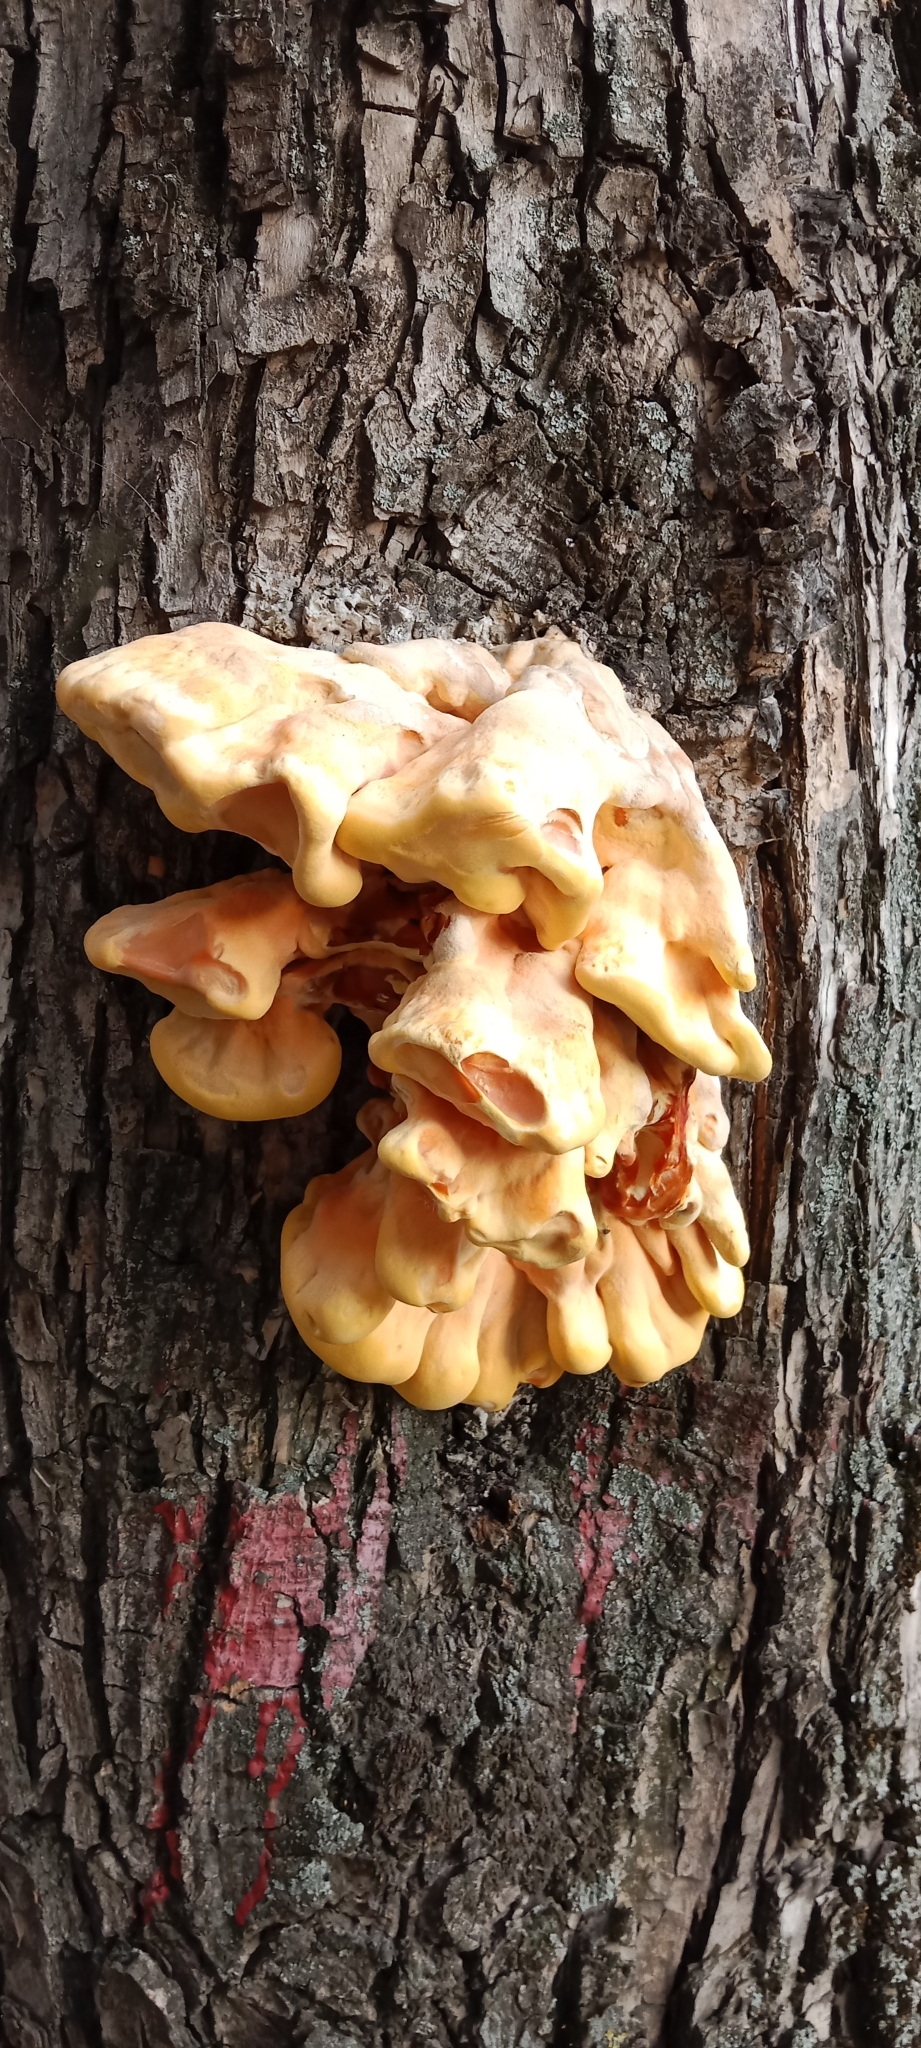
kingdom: Fungi
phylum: Basidiomycota
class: Agaricomycetes
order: Polyporales
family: Laetiporaceae
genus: Laetiporus
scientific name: Laetiporus sulphureus
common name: Chicken of the woods
